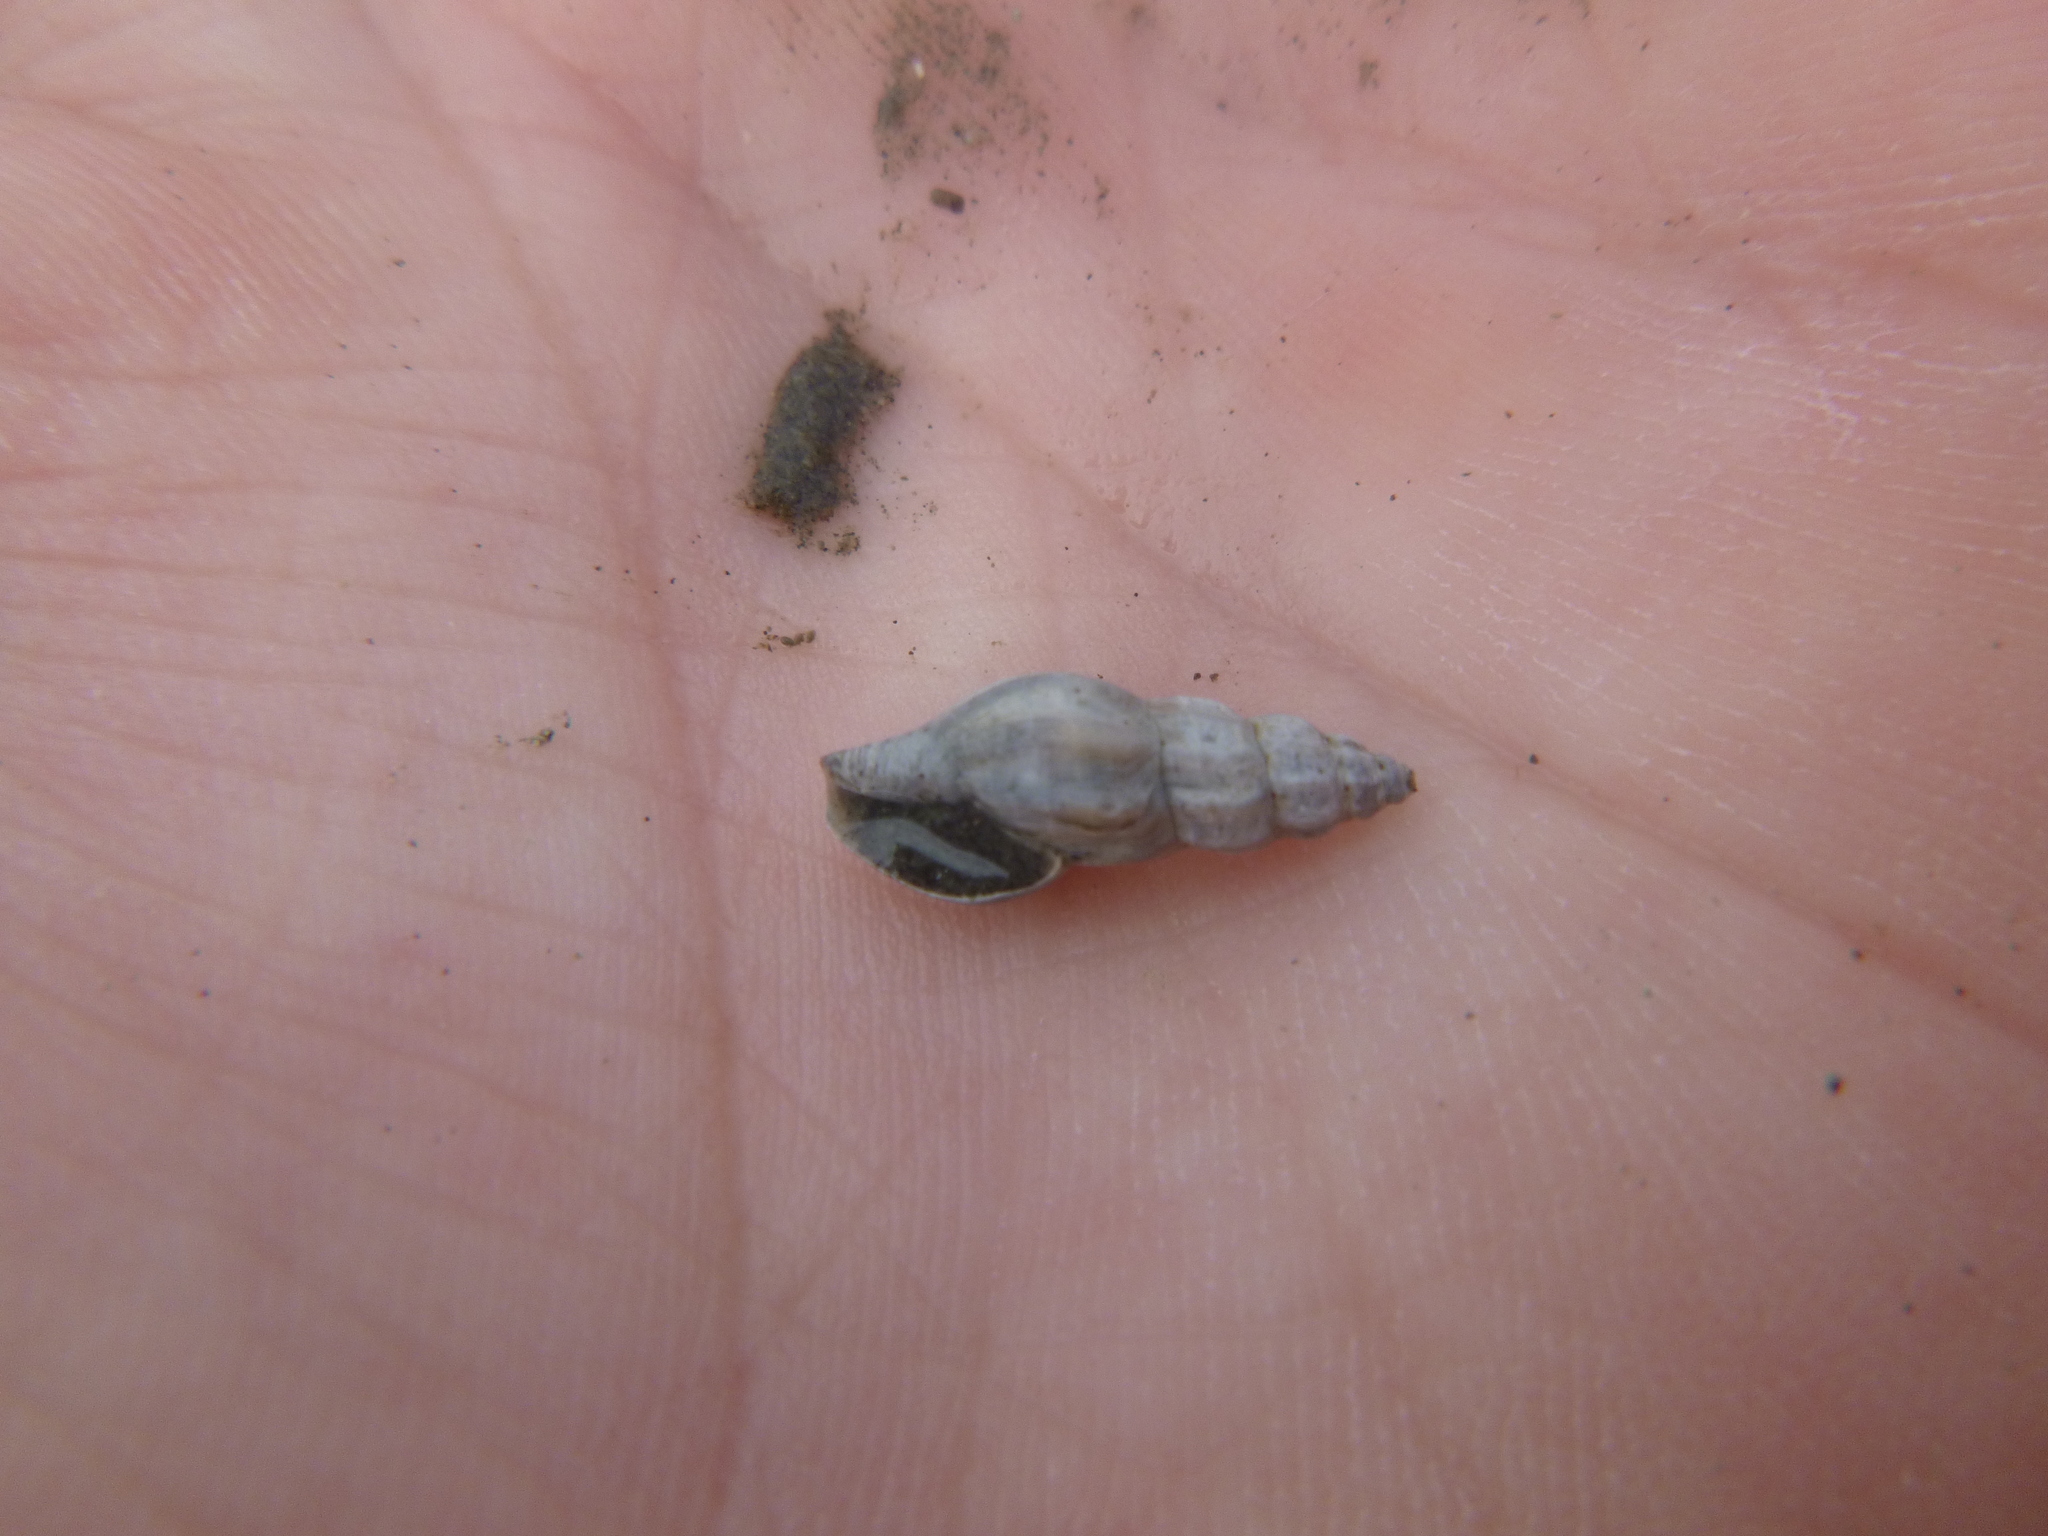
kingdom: Animalia
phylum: Mollusca
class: Gastropoda
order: Neogastropoda
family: Mangeliidae
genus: Neoguraleus
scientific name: Neoguraleus manukauensis
